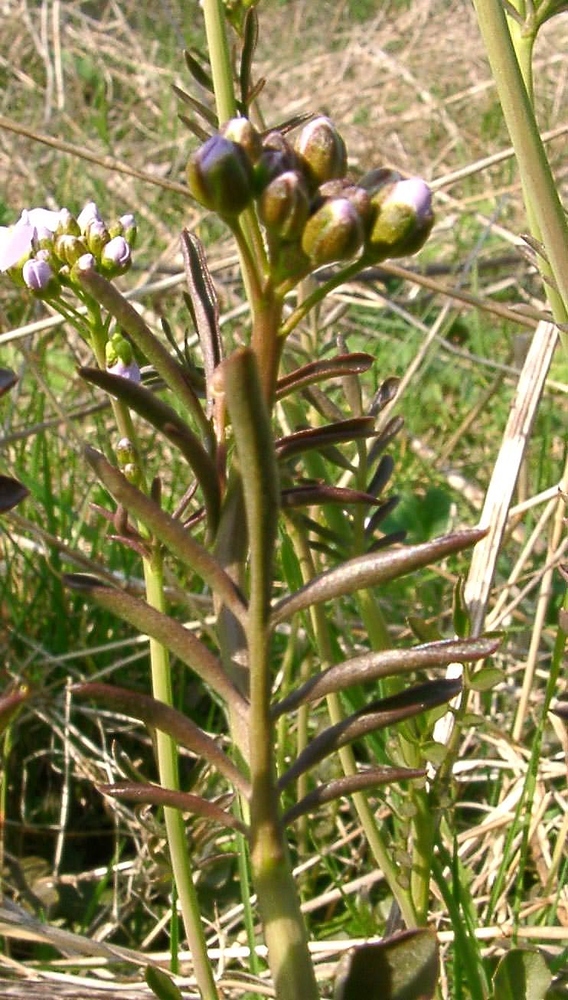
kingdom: Plantae
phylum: Tracheophyta
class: Magnoliopsida
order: Brassicales
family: Brassicaceae
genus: Cardamine
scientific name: Cardamine pratensis
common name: Cuckoo flower
